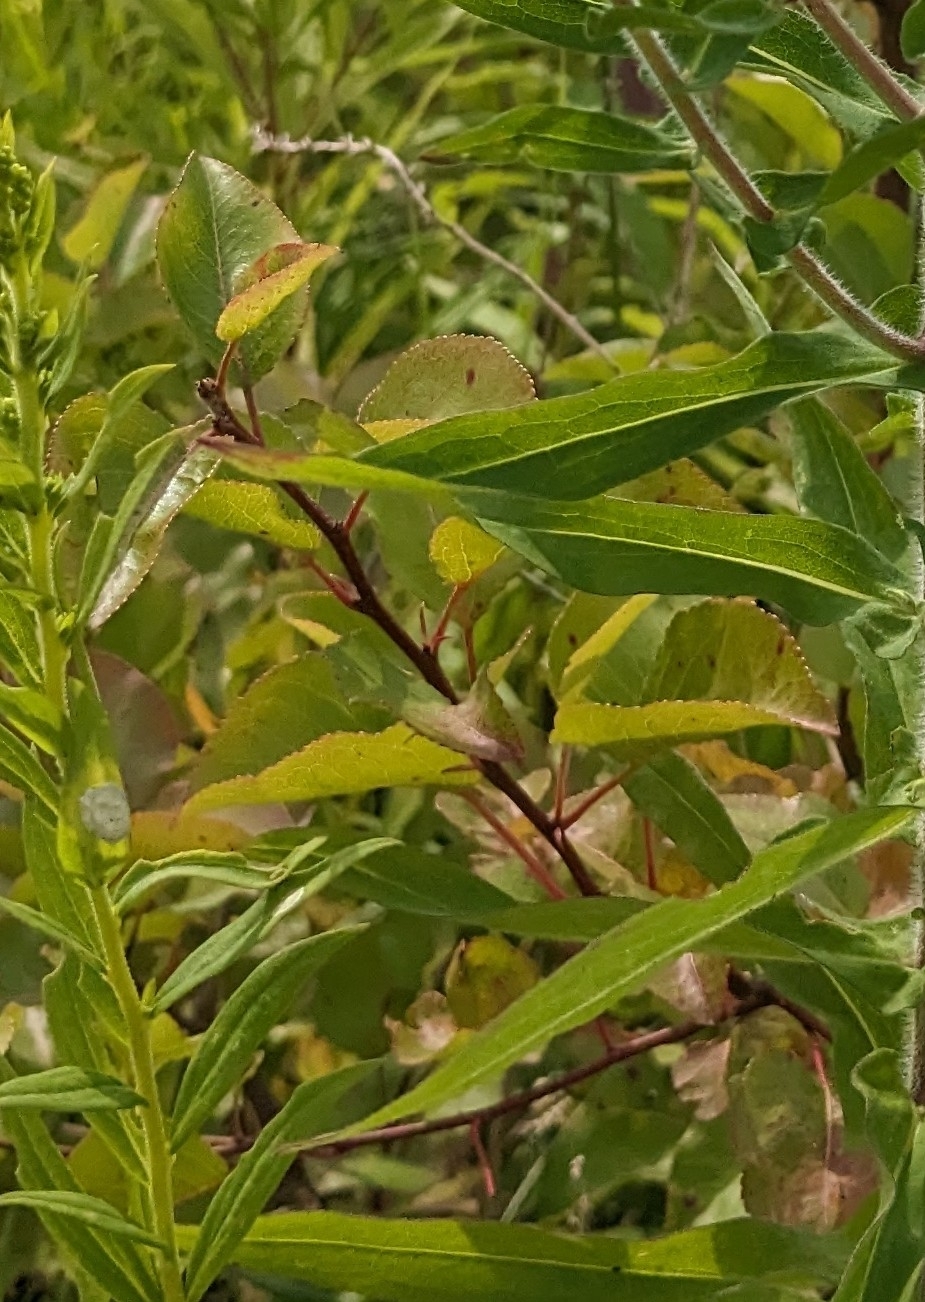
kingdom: Plantae
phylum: Tracheophyta
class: Magnoliopsida
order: Rosales
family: Rosaceae
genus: Pyrus
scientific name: Pyrus calleryana
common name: Callery pear
